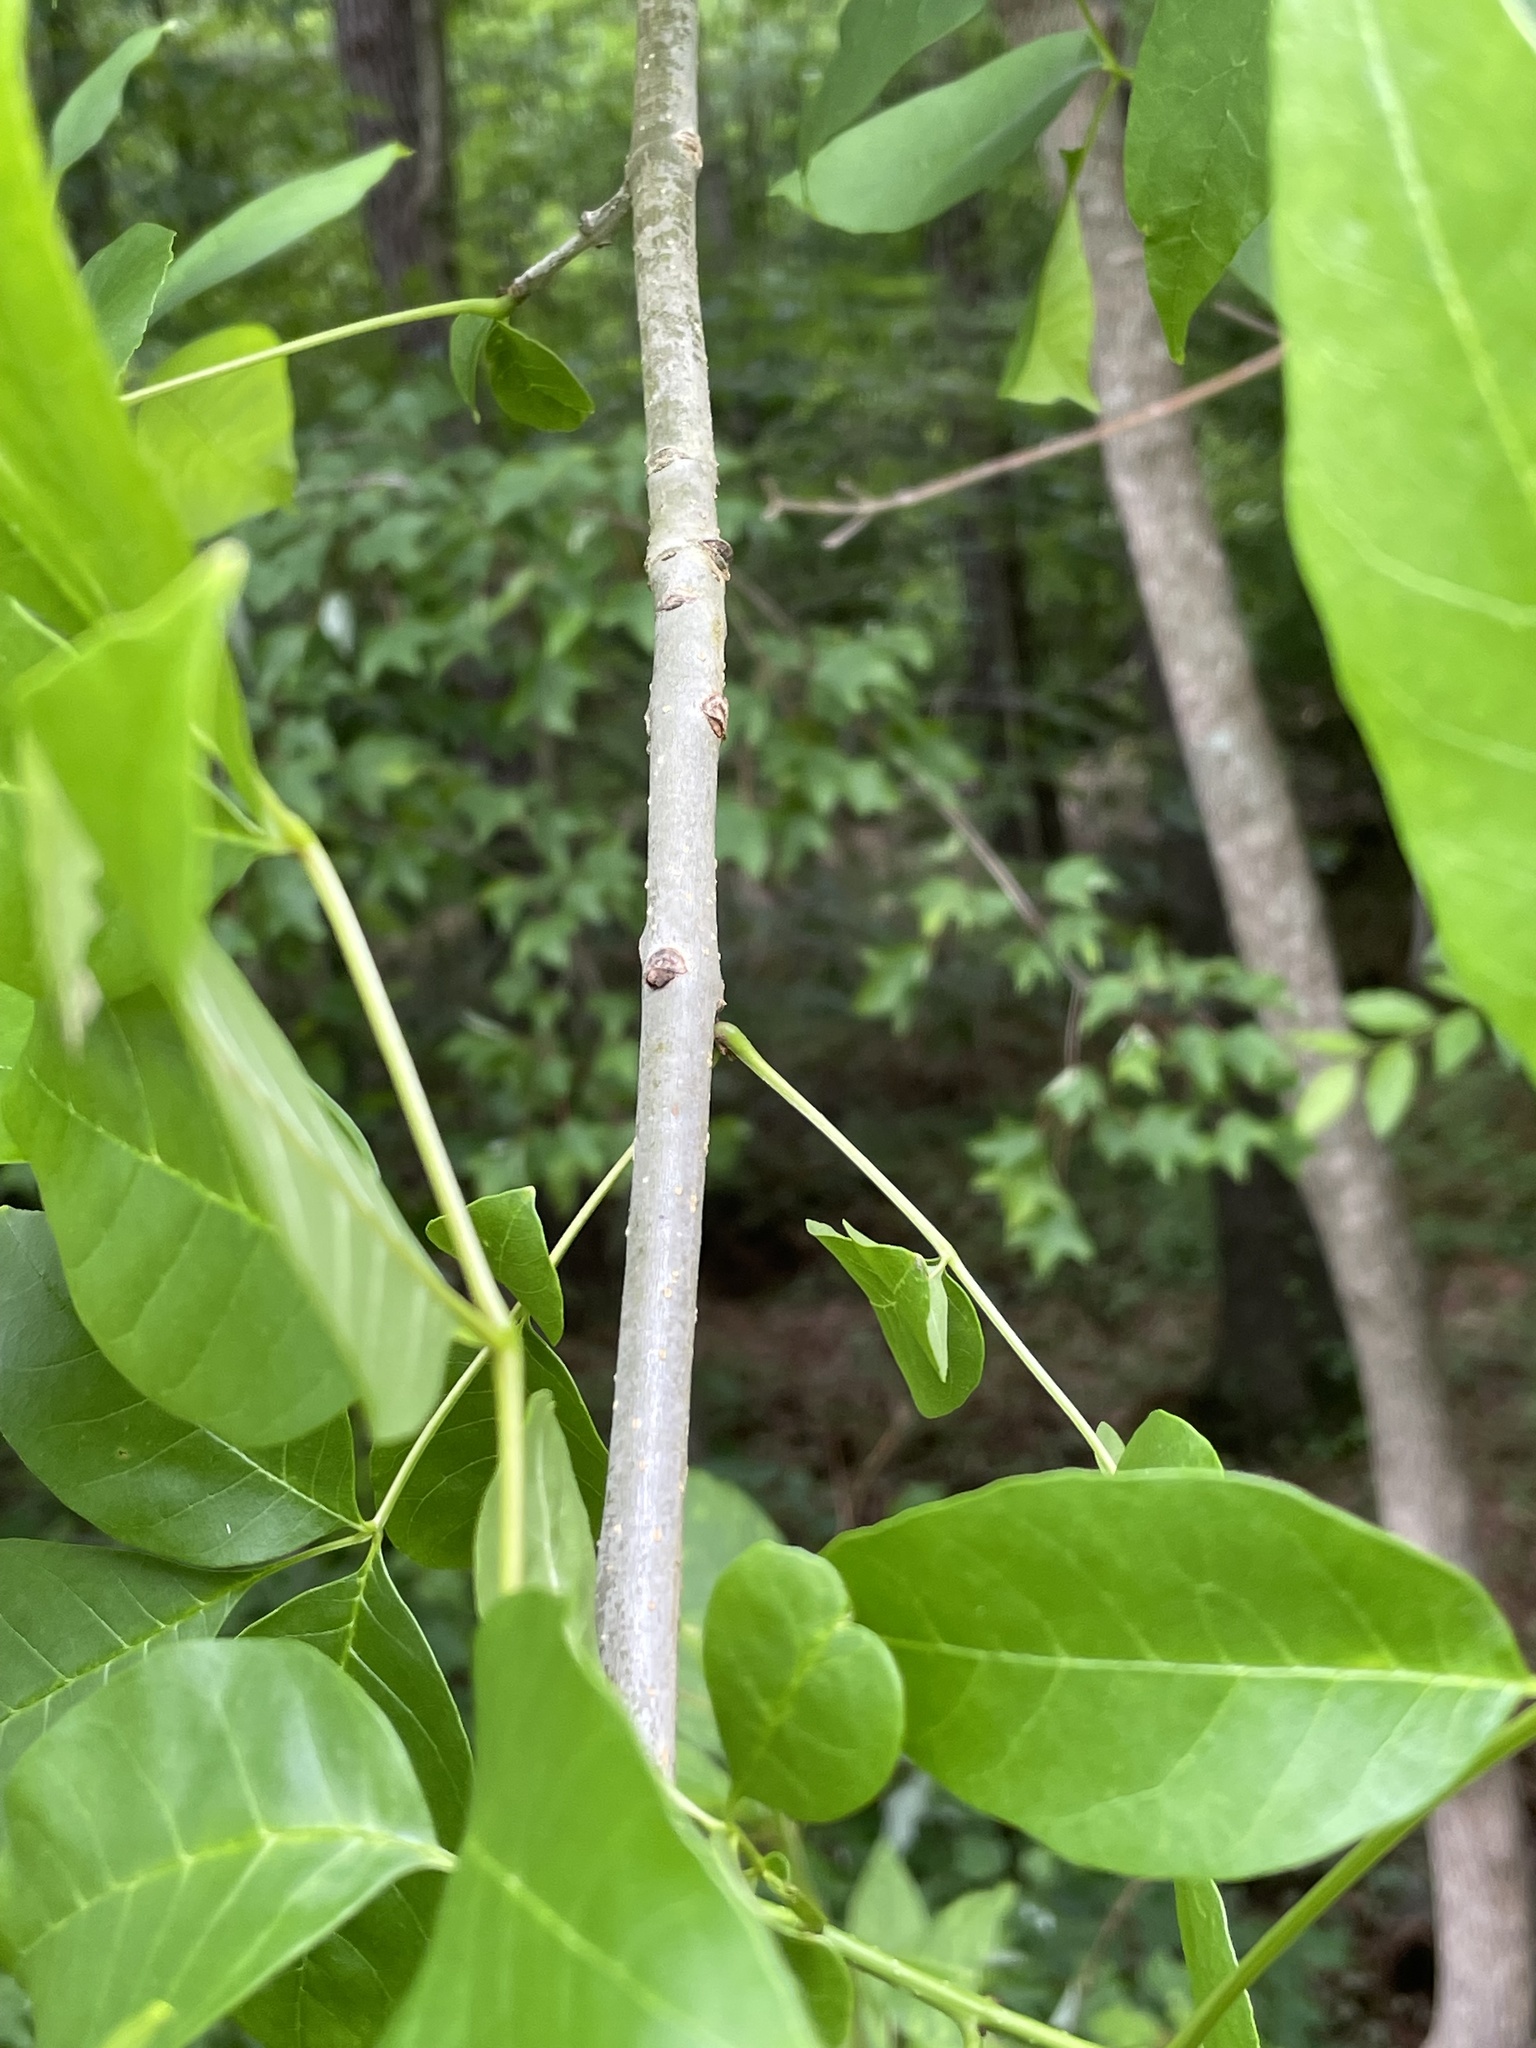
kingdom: Plantae
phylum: Tracheophyta
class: Magnoliopsida
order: Lamiales
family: Oleaceae
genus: Fraxinus
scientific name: Fraxinus pennsylvanica
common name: Green ash
